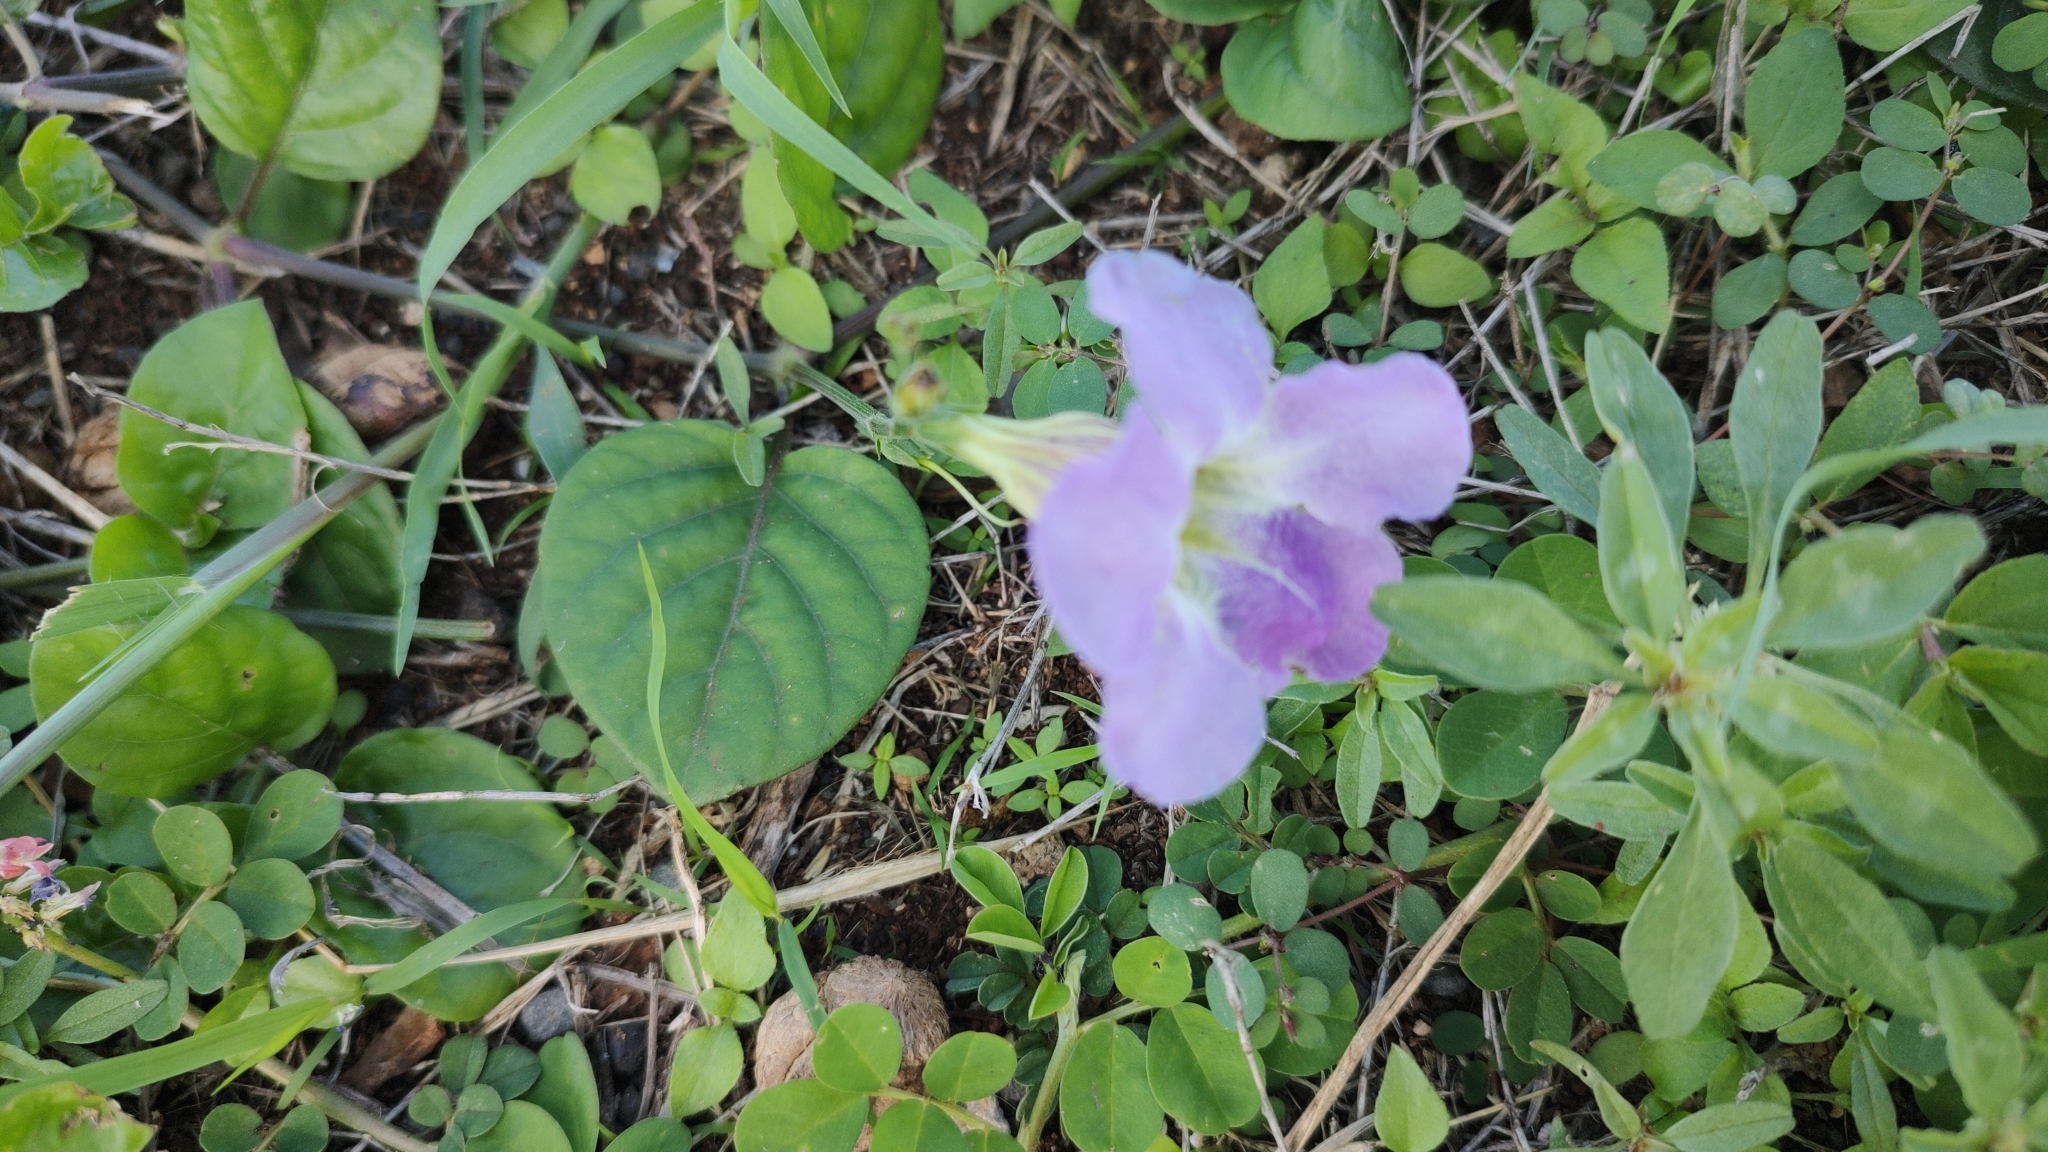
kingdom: Plantae
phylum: Tracheophyta
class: Magnoliopsida
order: Lamiales
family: Acanthaceae
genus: Asystasia
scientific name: Asystasia gangetica
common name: Chinese violet
